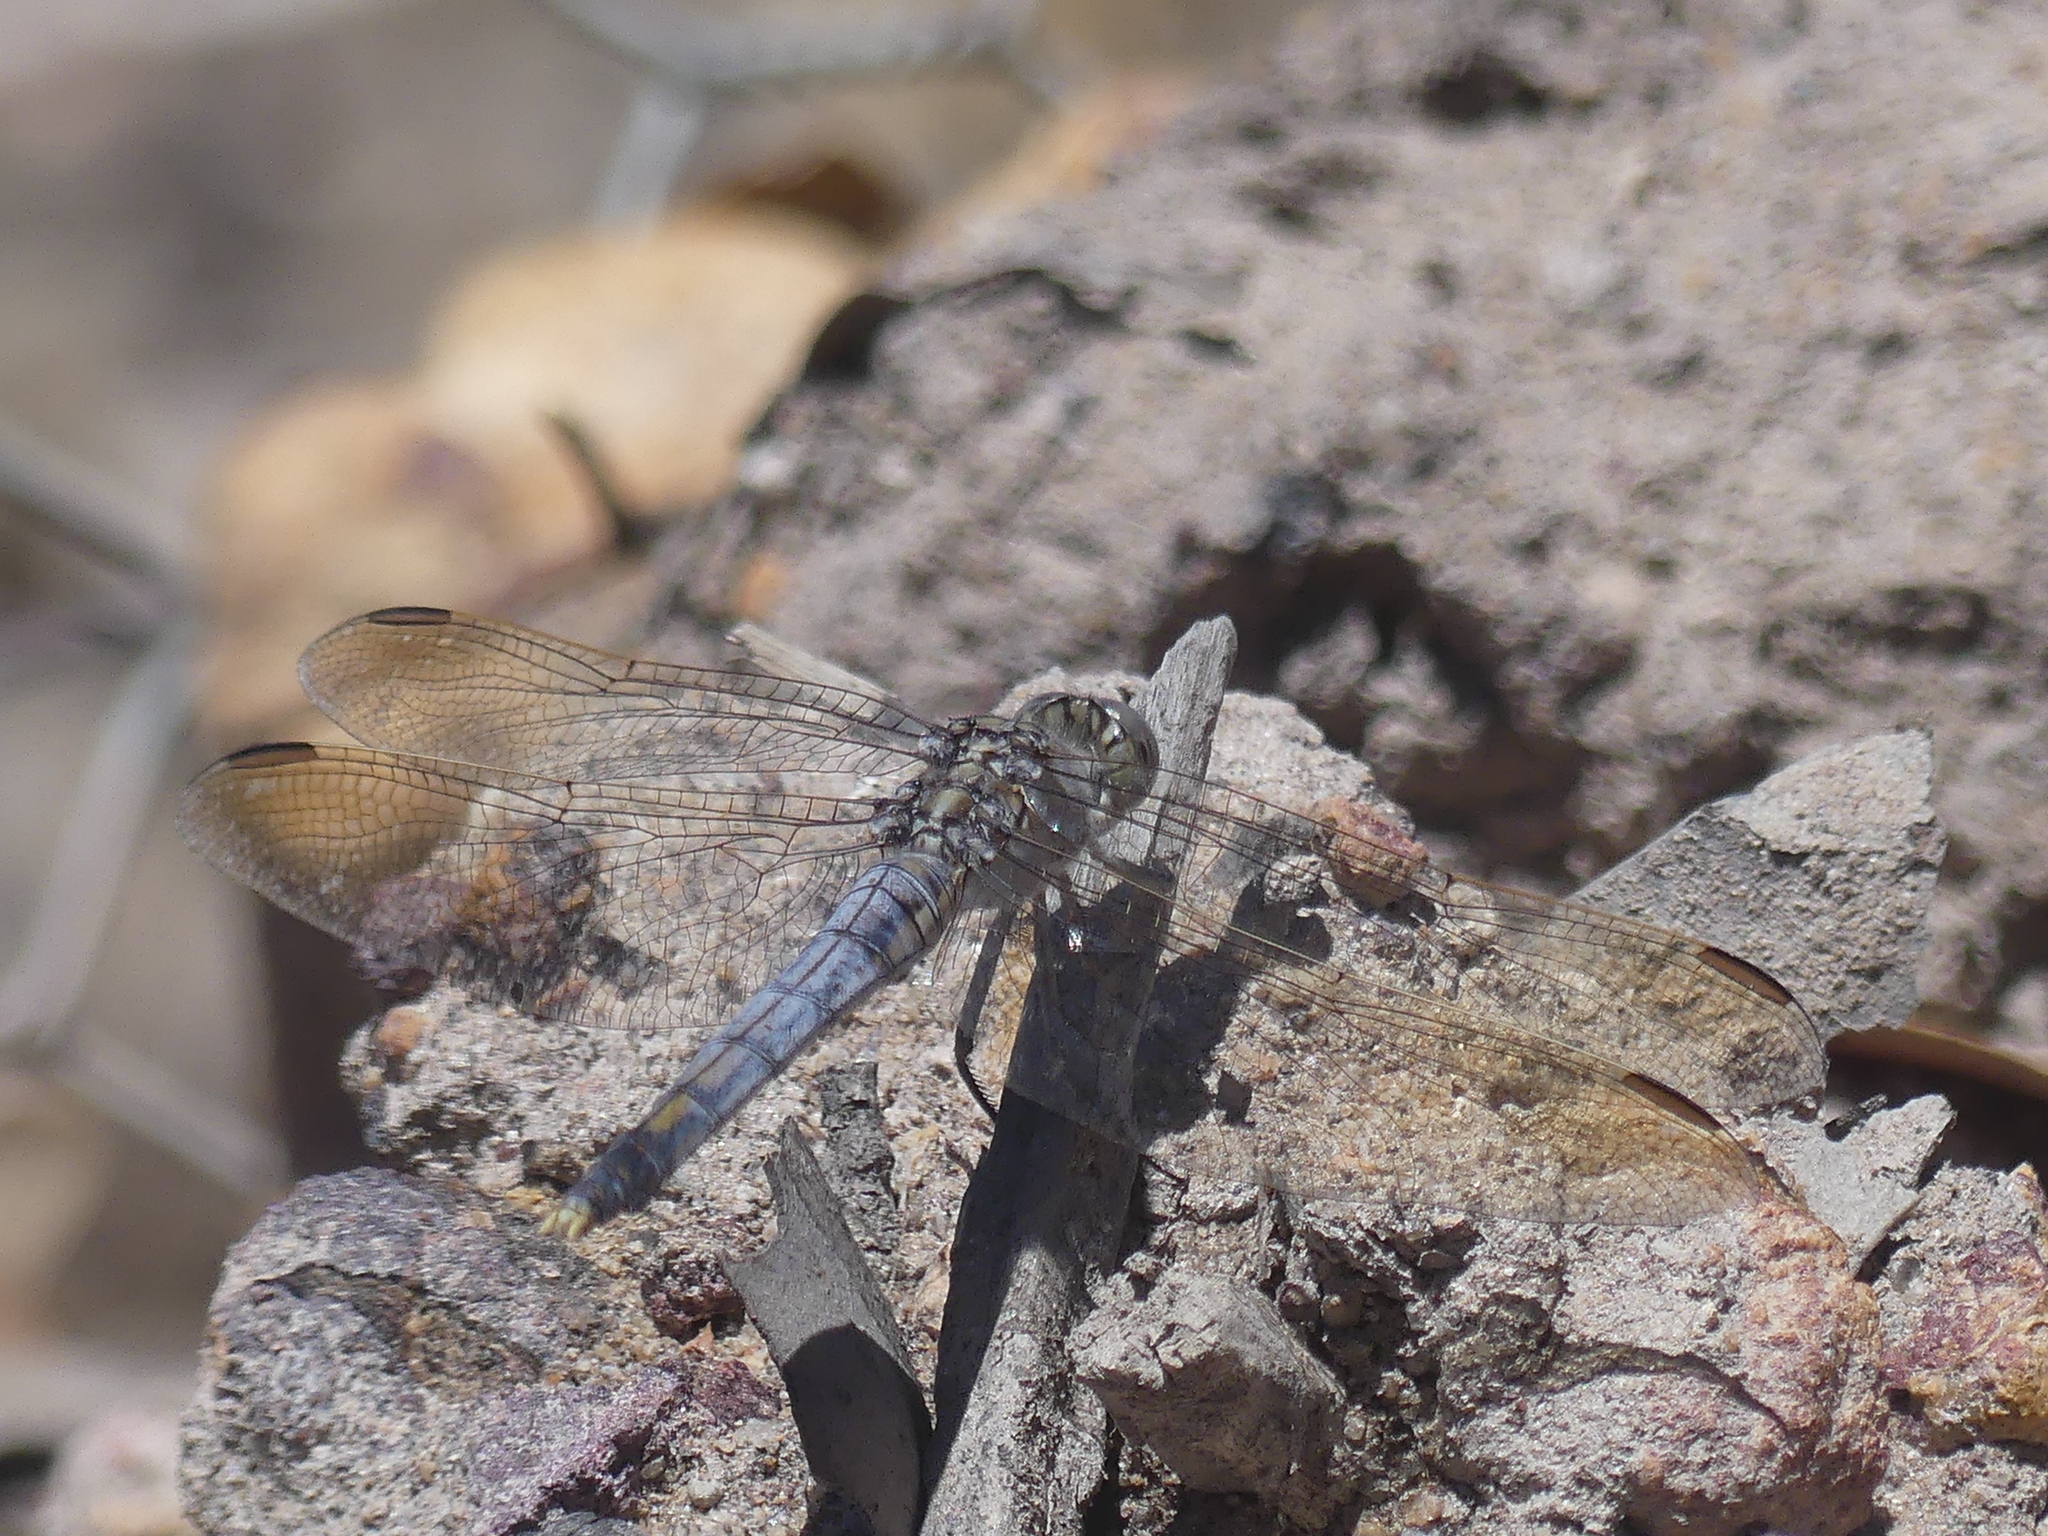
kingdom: Animalia
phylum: Arthropoda
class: Insecta
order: Odonata
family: Libellulidae
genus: Orthetrum
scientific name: Orthetrum caledonicum
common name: Blue skimmer
